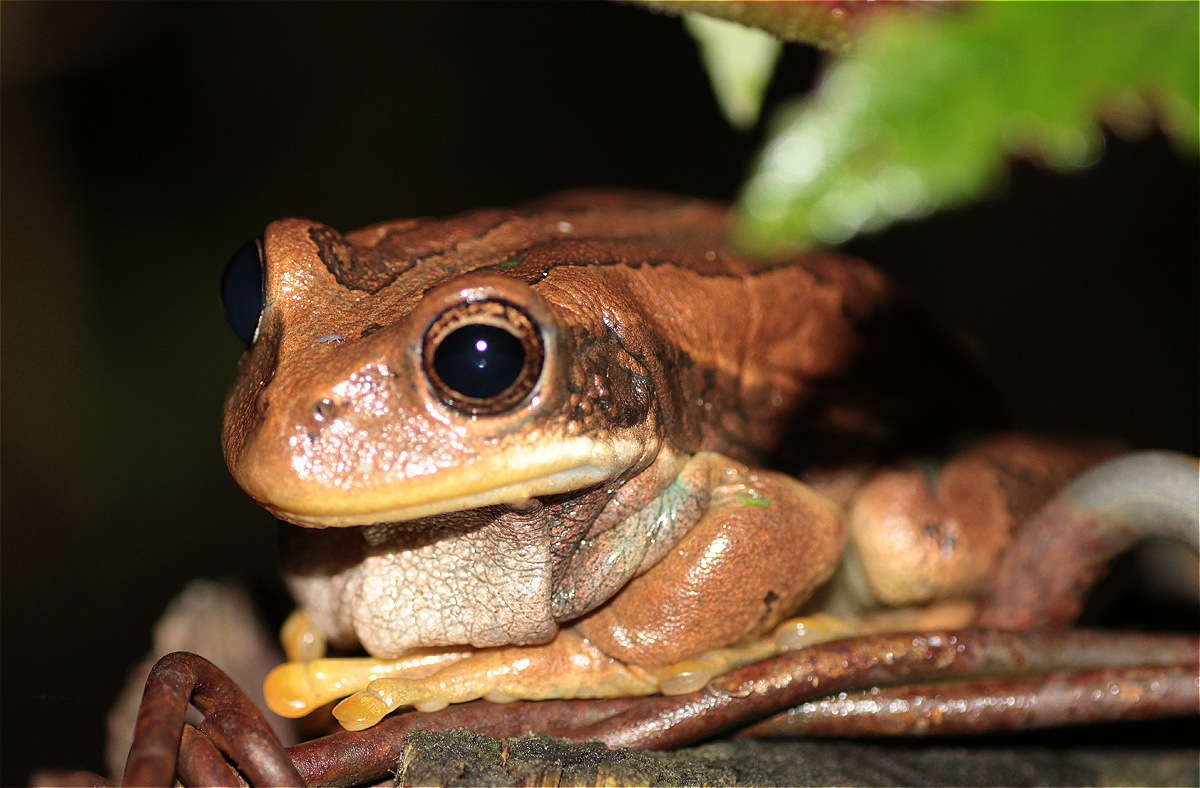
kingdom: Animalia
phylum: Chordata
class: Amphibia
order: Anura
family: Hemiphractidae
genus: Gastrotheca
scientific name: Gastrotheca cuencana
